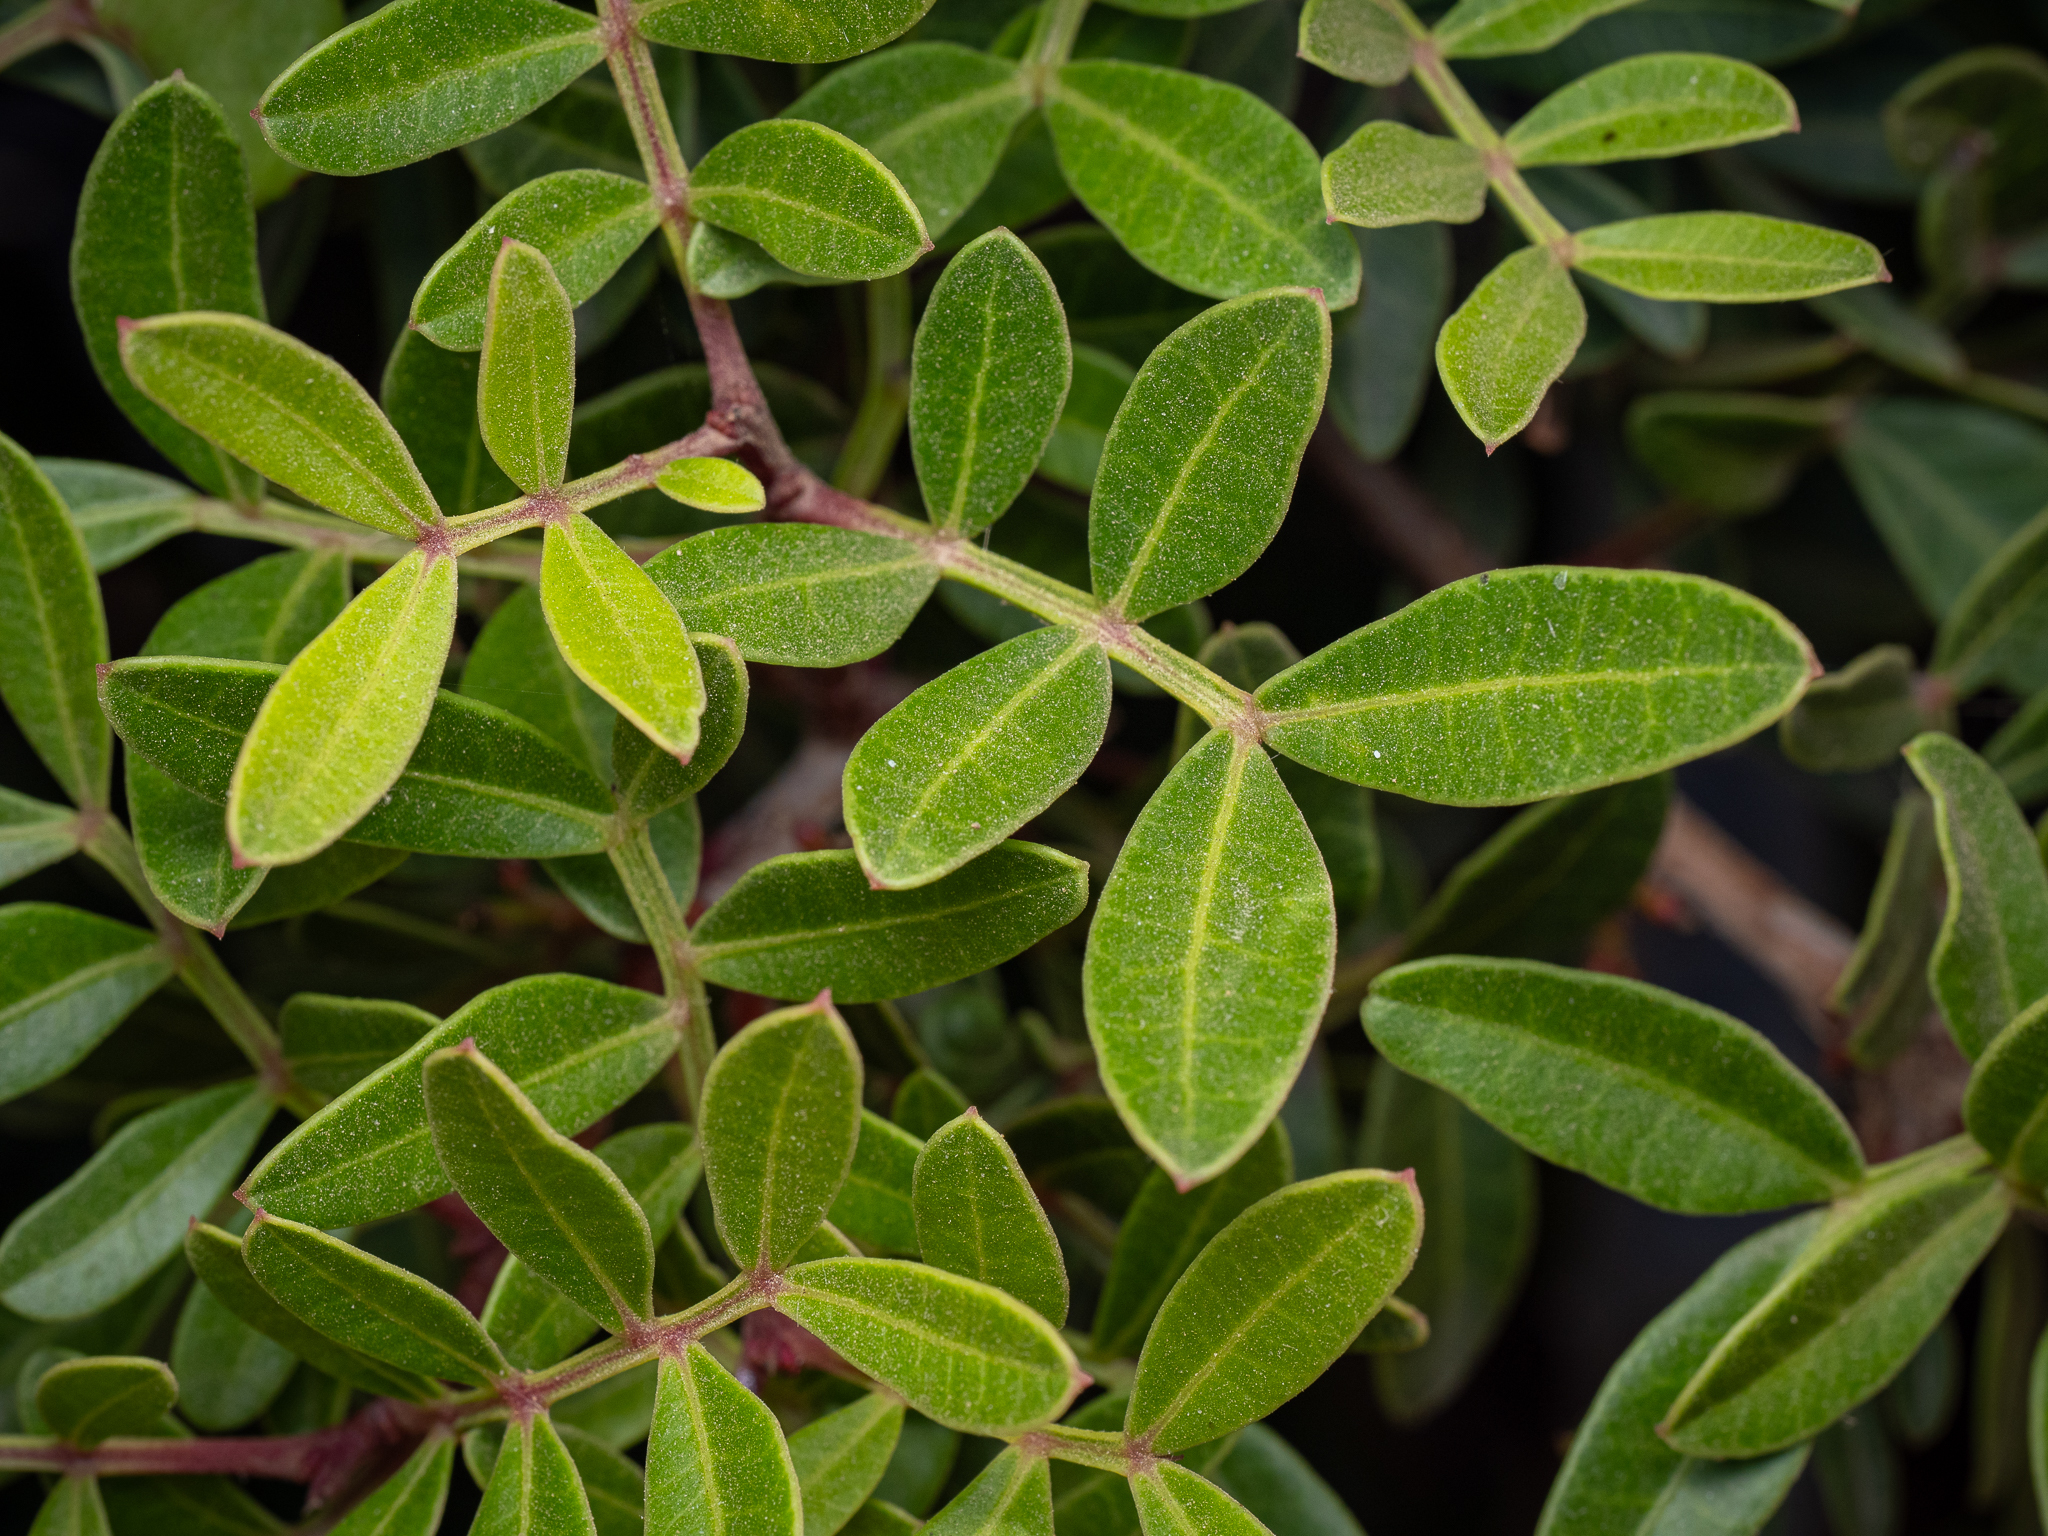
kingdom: Plantae
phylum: Tracheophyta
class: Magnoliopsida
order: Sapindales
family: Anacardiaceae
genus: Pistacia
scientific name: Pistacia lentiscus
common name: Lentisk
